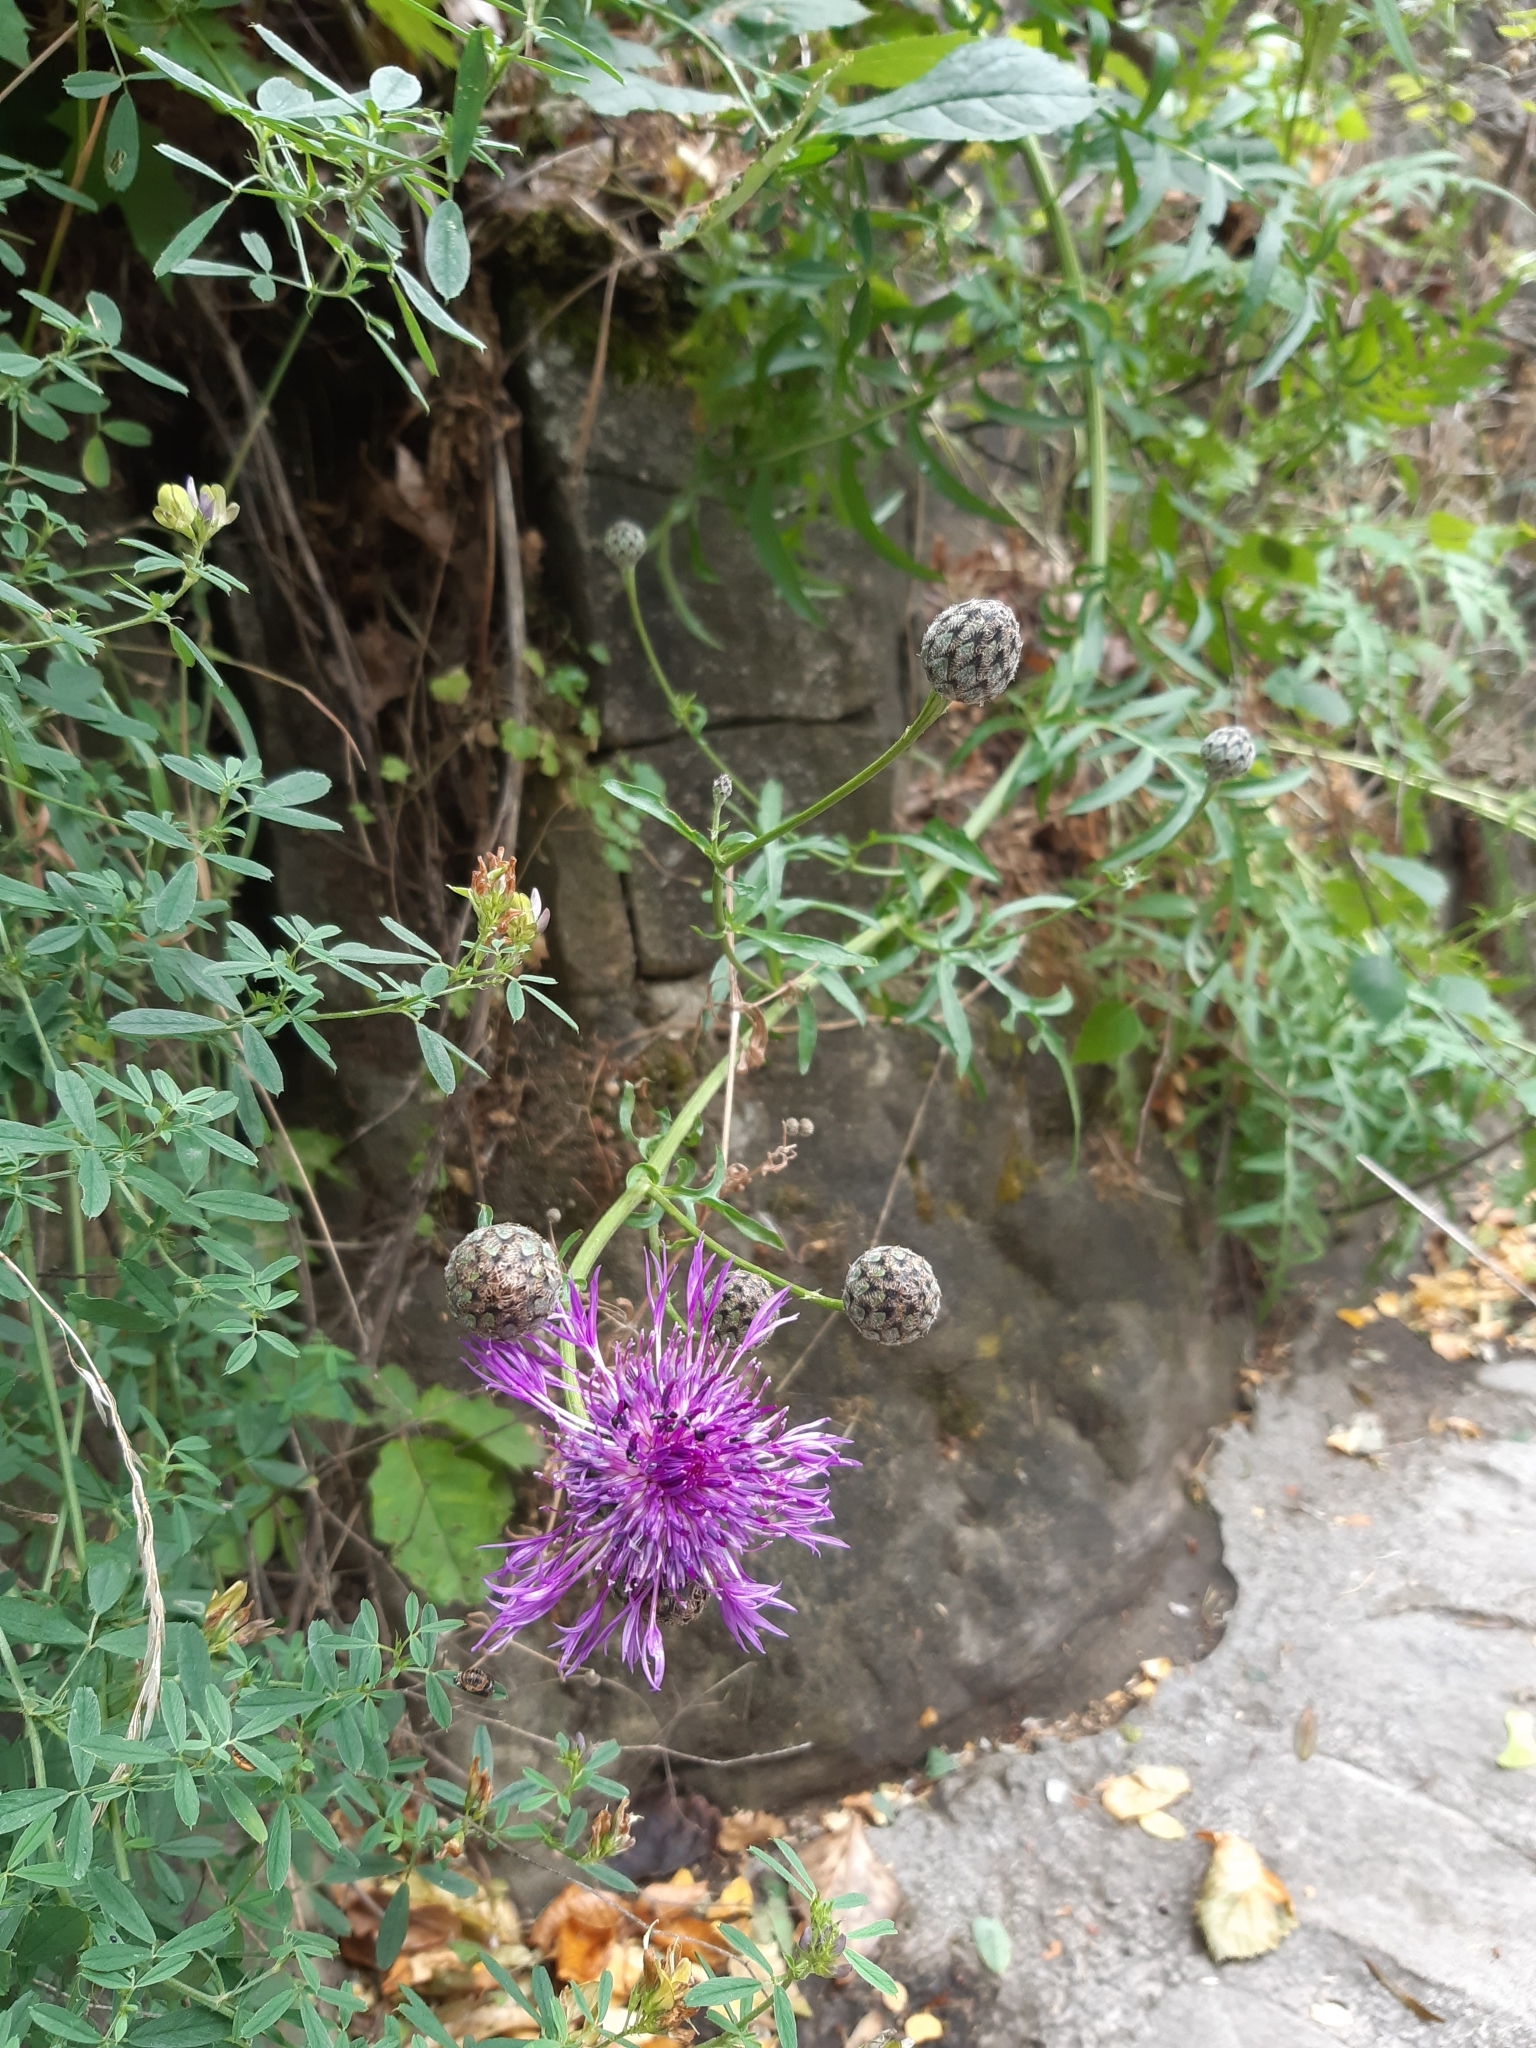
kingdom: Plantae
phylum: Tracheophyta
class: Magnoliopsida
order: Asterales
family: Asteraceae
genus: Centaurea
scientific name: Centaurea scabiosa
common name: Greater knapweed
